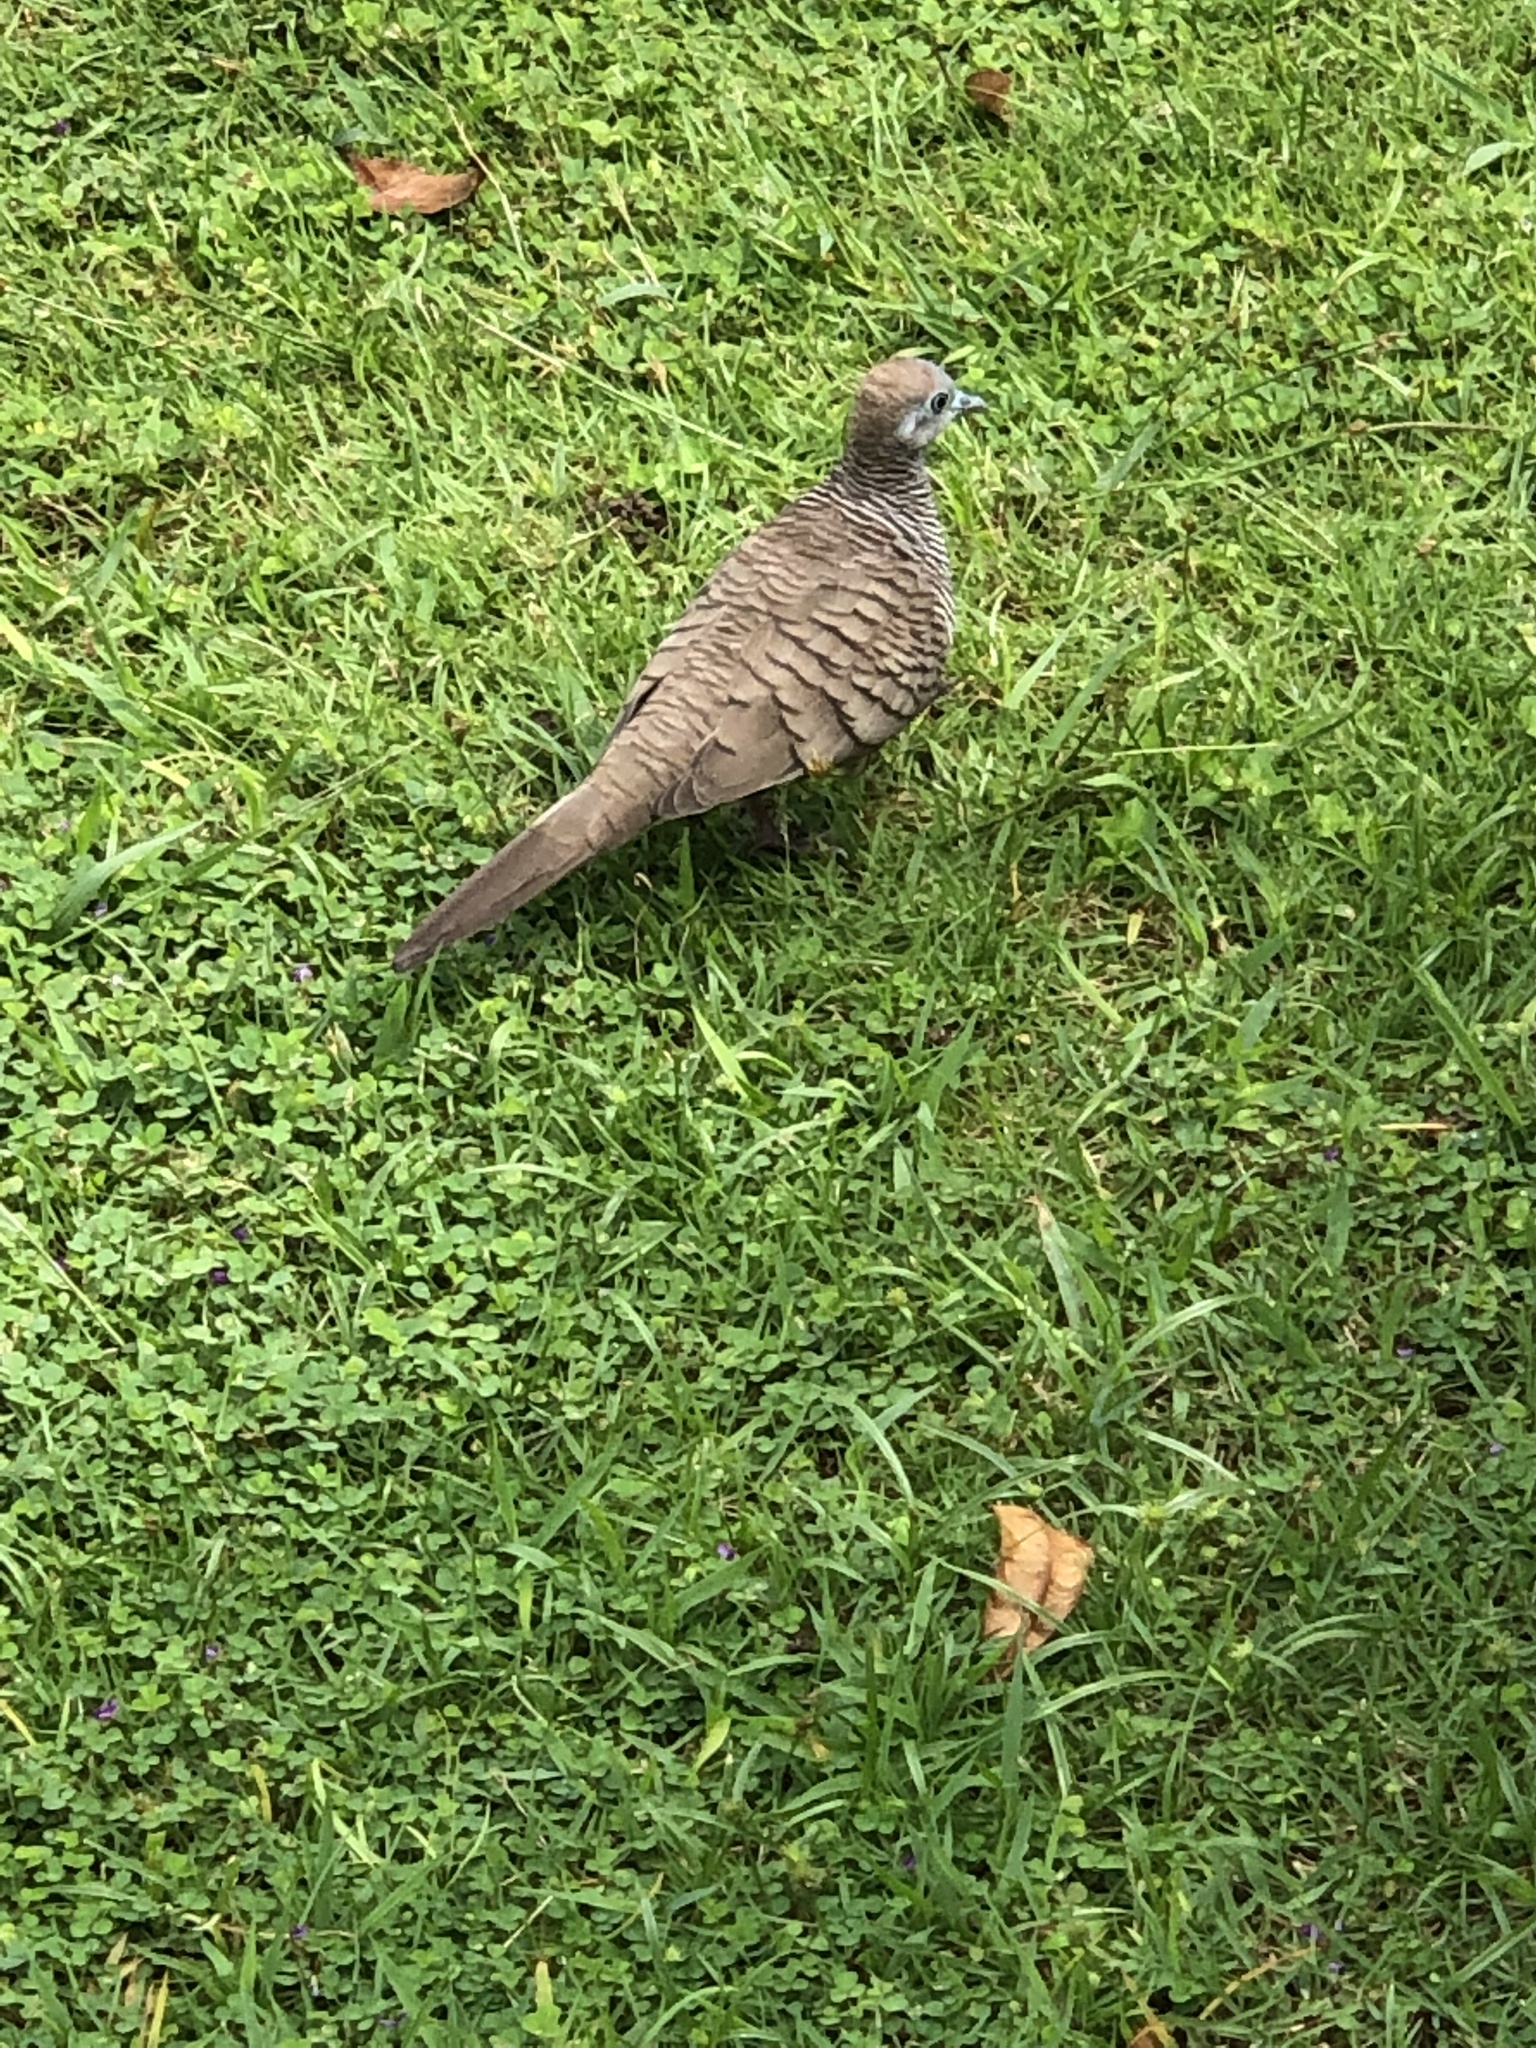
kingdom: Animalia
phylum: Chordata
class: Aves
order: Columbiformes
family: Columbidae
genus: Geopelia
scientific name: Geopelia striata
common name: Zebra dove
